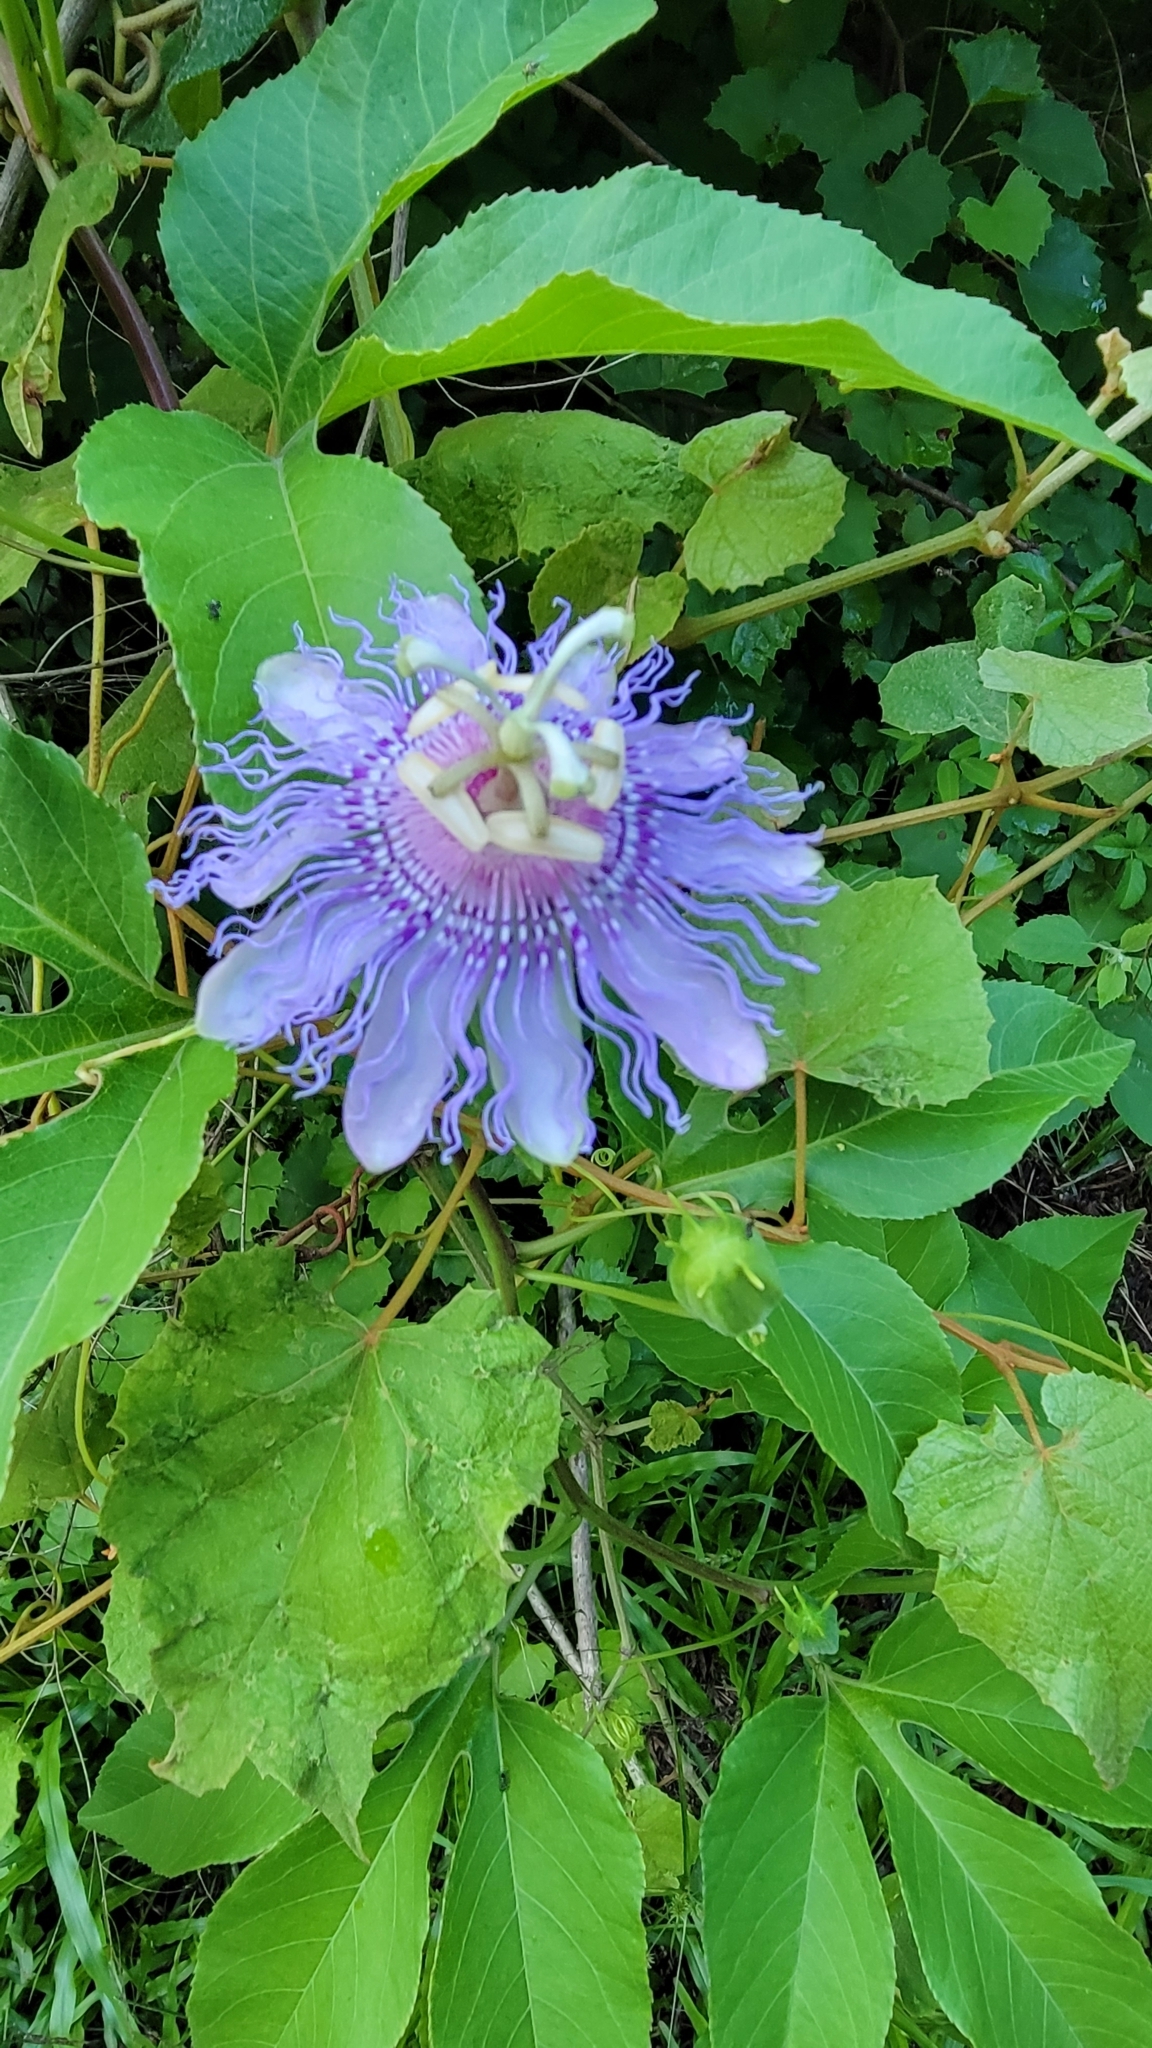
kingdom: Plantae
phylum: Tracheophyta
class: Magnoliopsida
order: Malpighiales
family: Passifloraceae
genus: Passiflora
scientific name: Passiflora incarnata
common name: Apricot-vine
